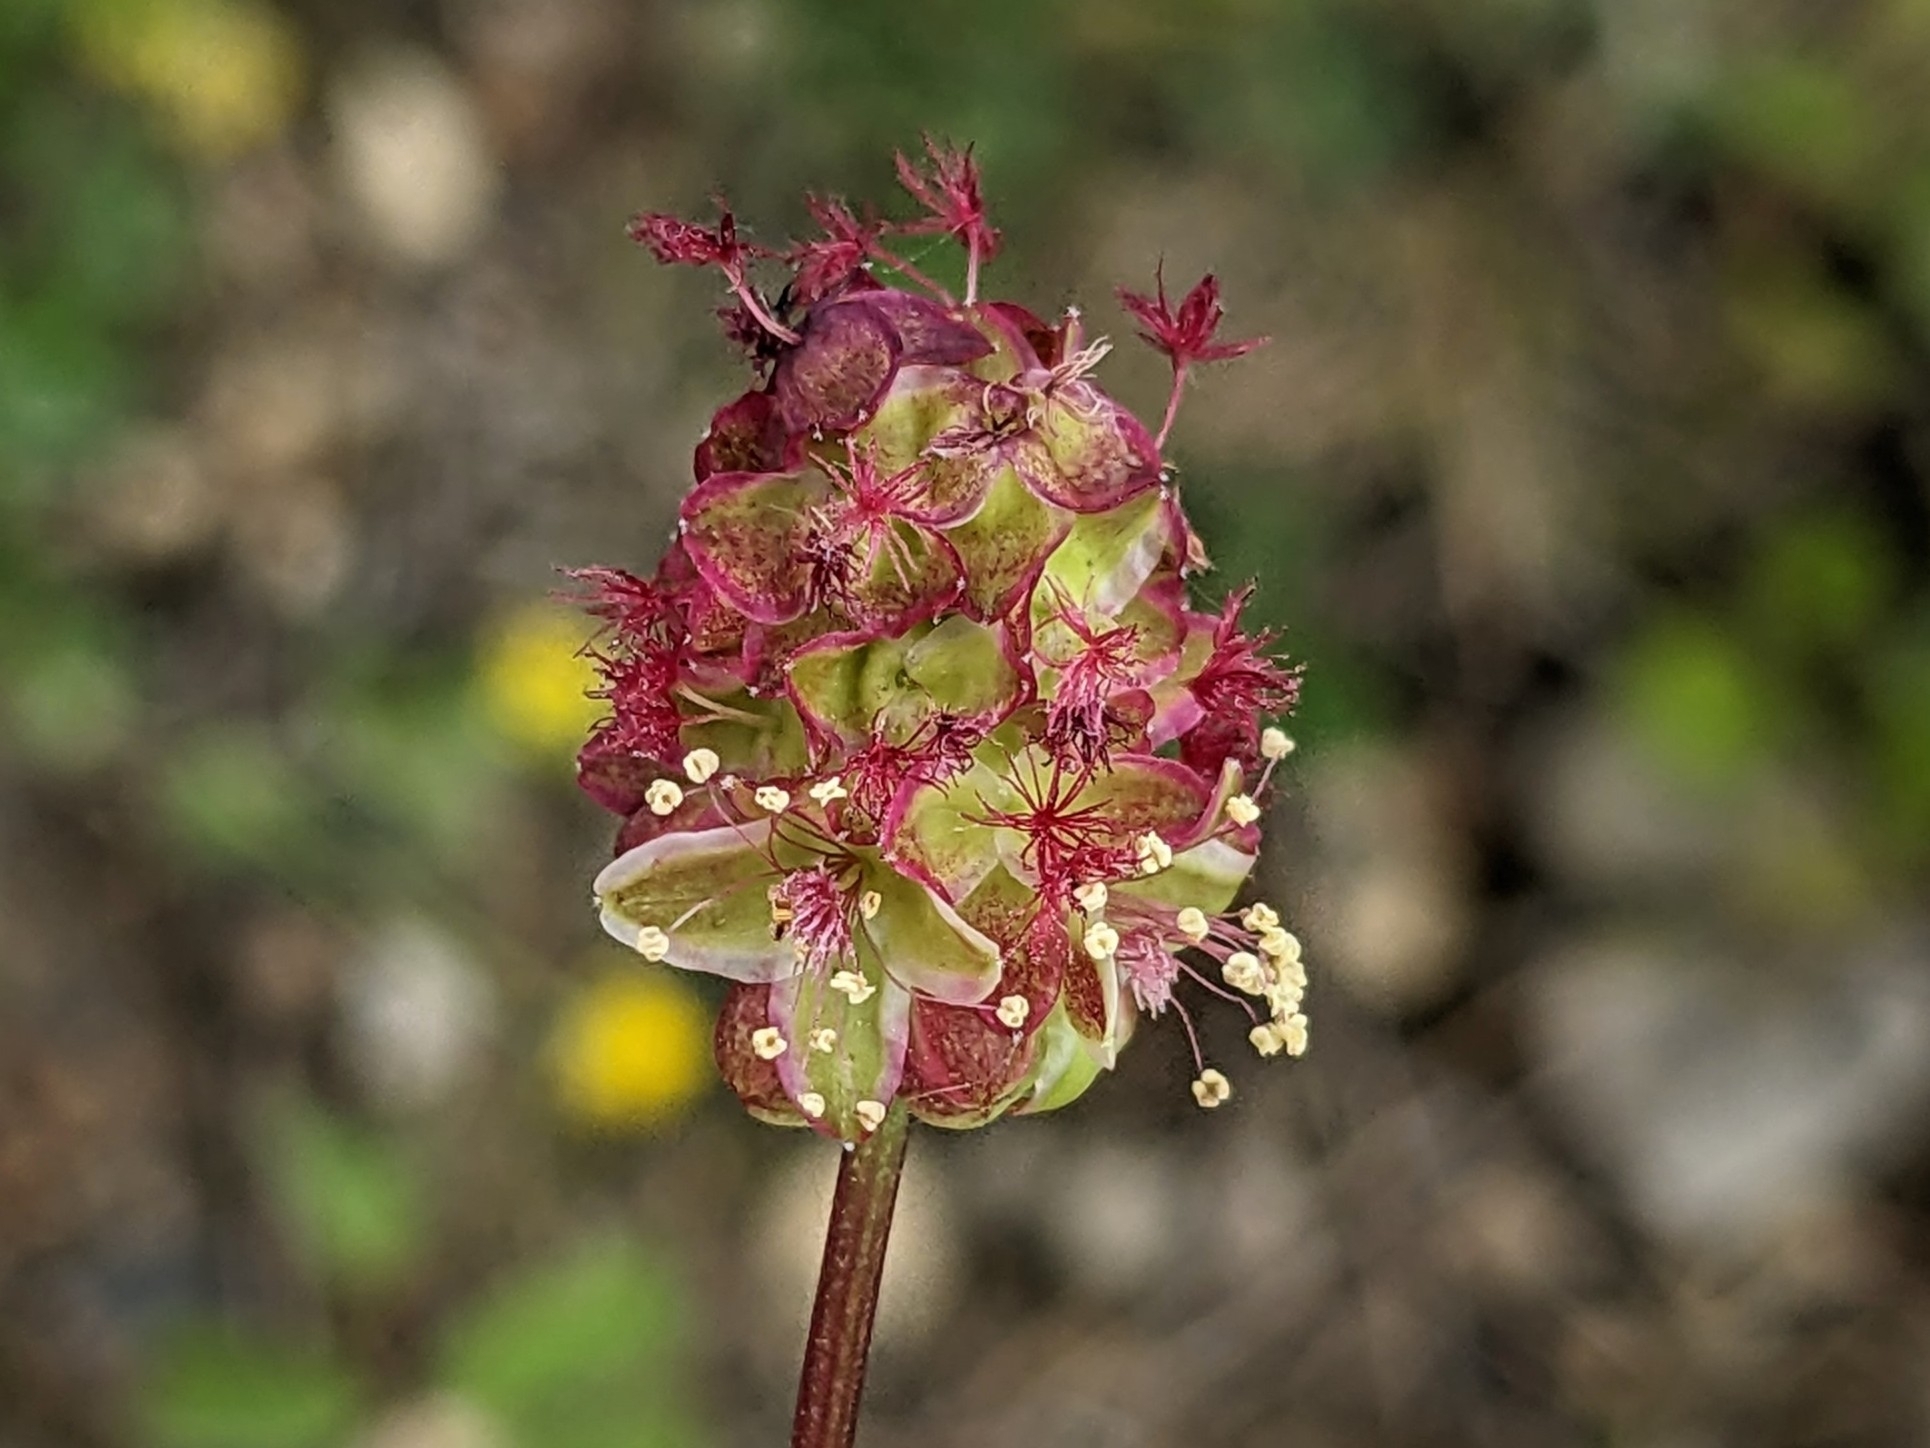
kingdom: Plantae
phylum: Tracheophyta
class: Magnoliopsida
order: Rosales
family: Rosaceae
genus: Poterium
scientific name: Poterium sanguisorba
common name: Salad burnet
